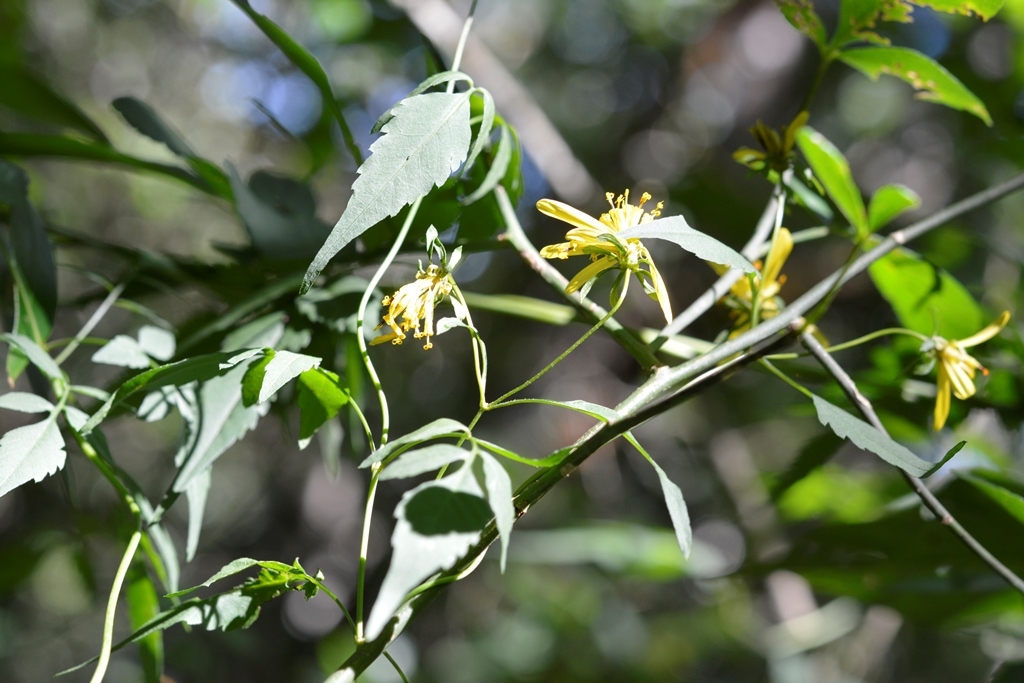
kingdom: Plantae
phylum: Tracheophyta
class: Magnoliopsida
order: Asterales
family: Asteraceae
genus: Bidens
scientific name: Bidens mexicana
